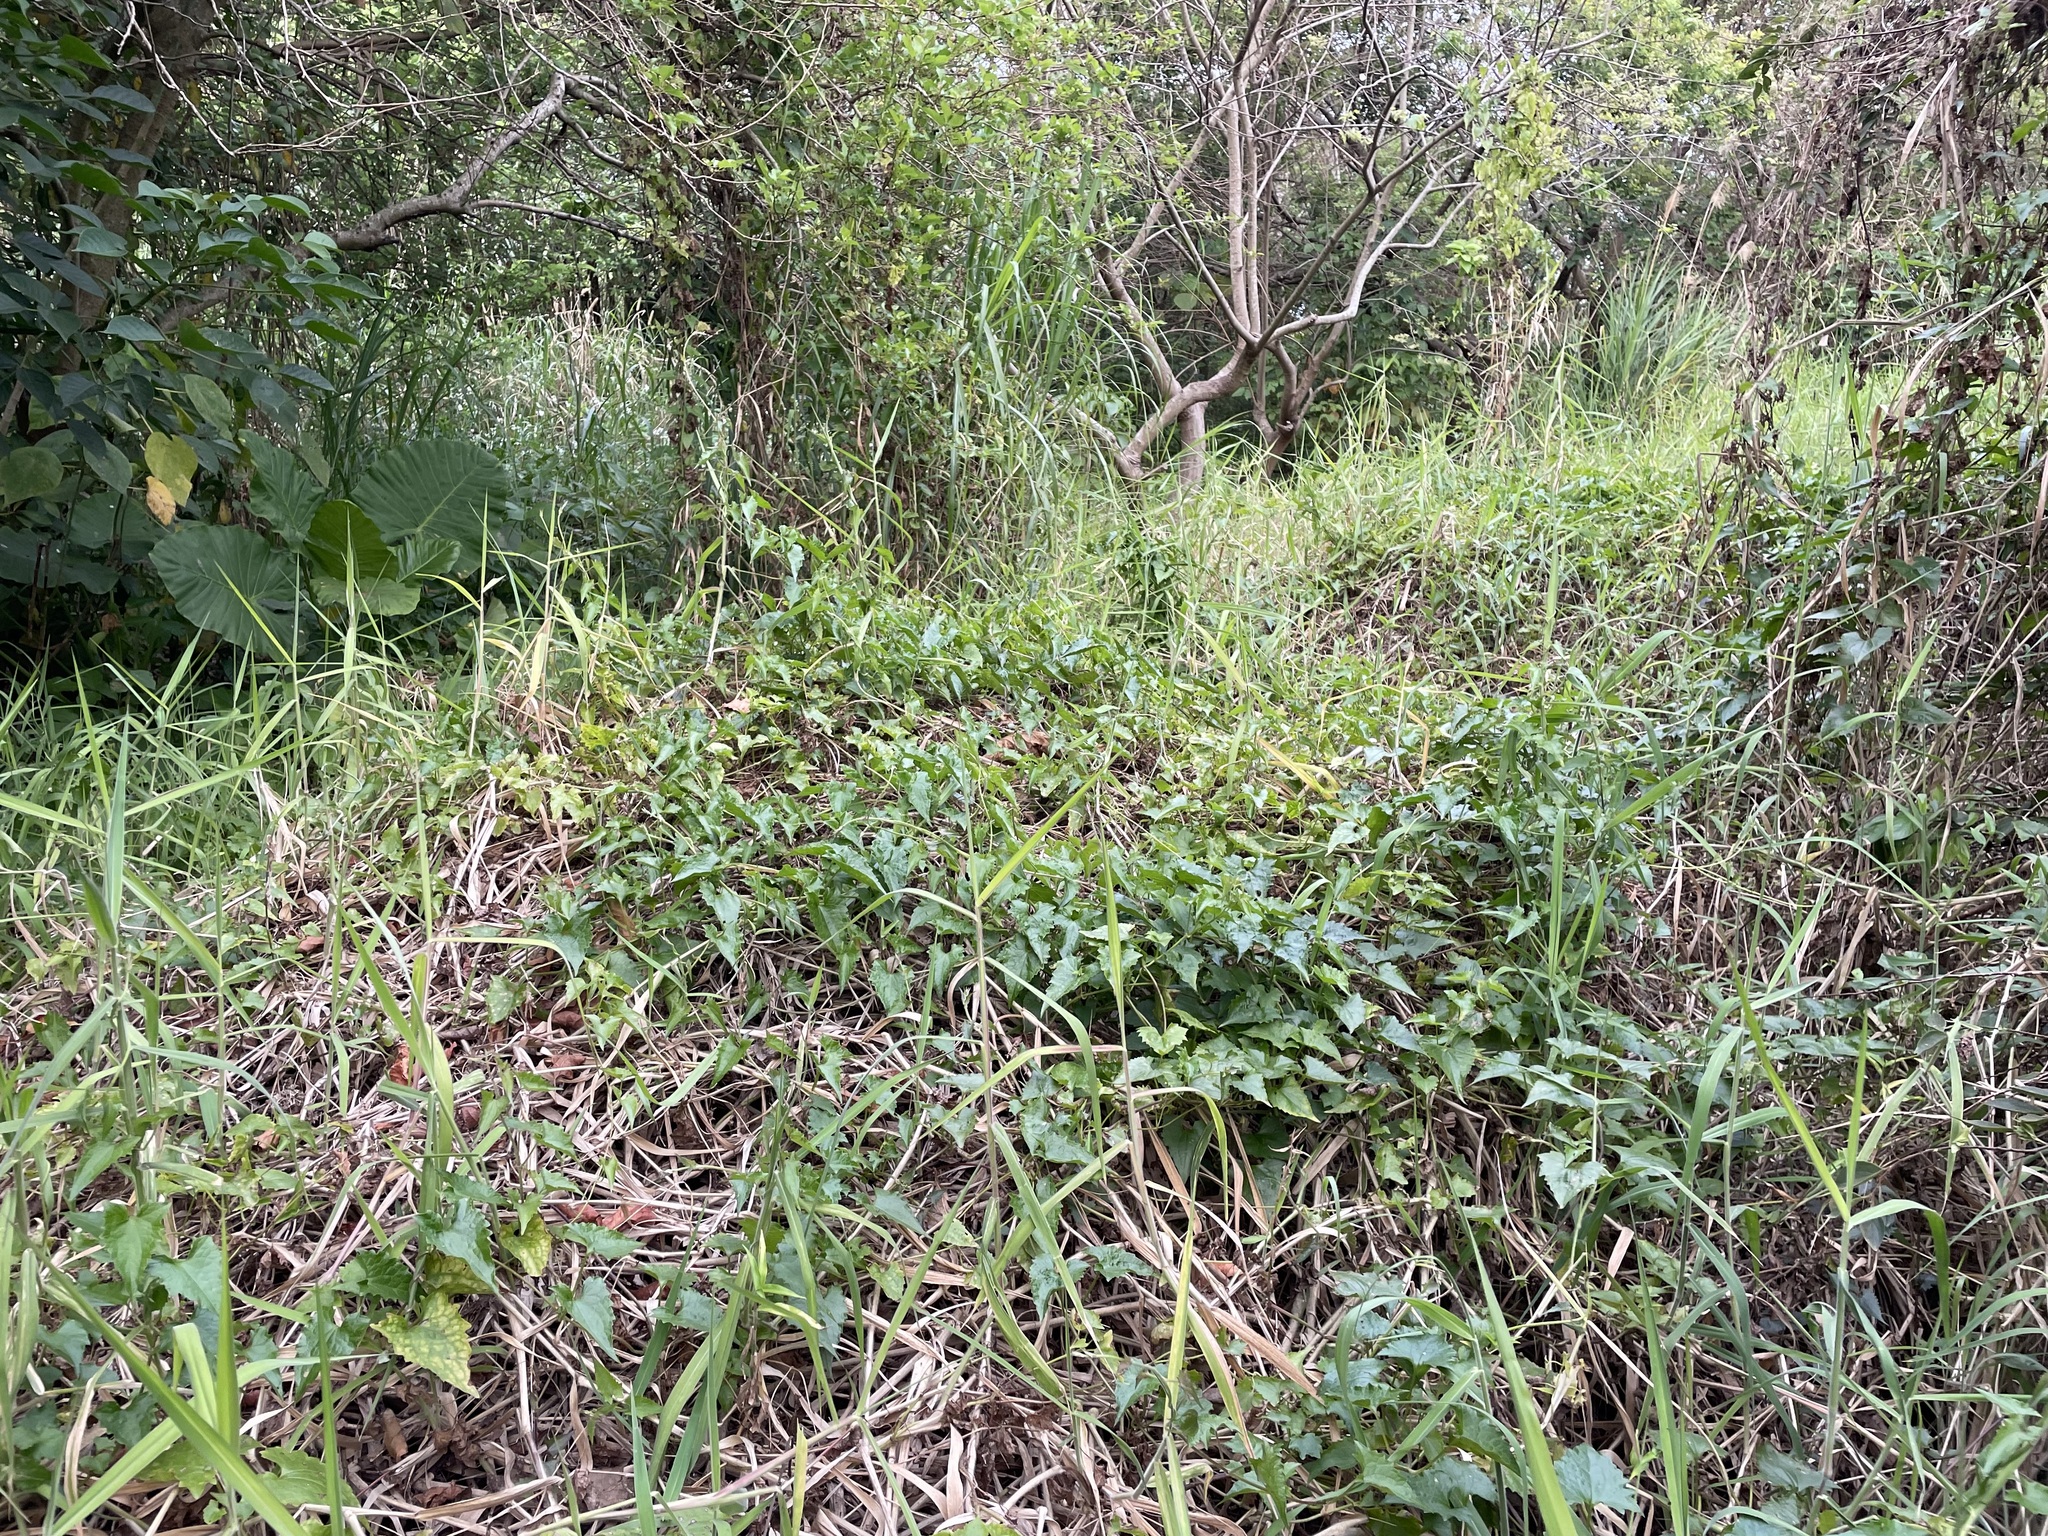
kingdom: Plantae
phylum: Tracheophyta
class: Magnoliopsida
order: Asterales
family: Asteraceae
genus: Mikania
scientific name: Mikania micrantha
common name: Mile-a-minute
